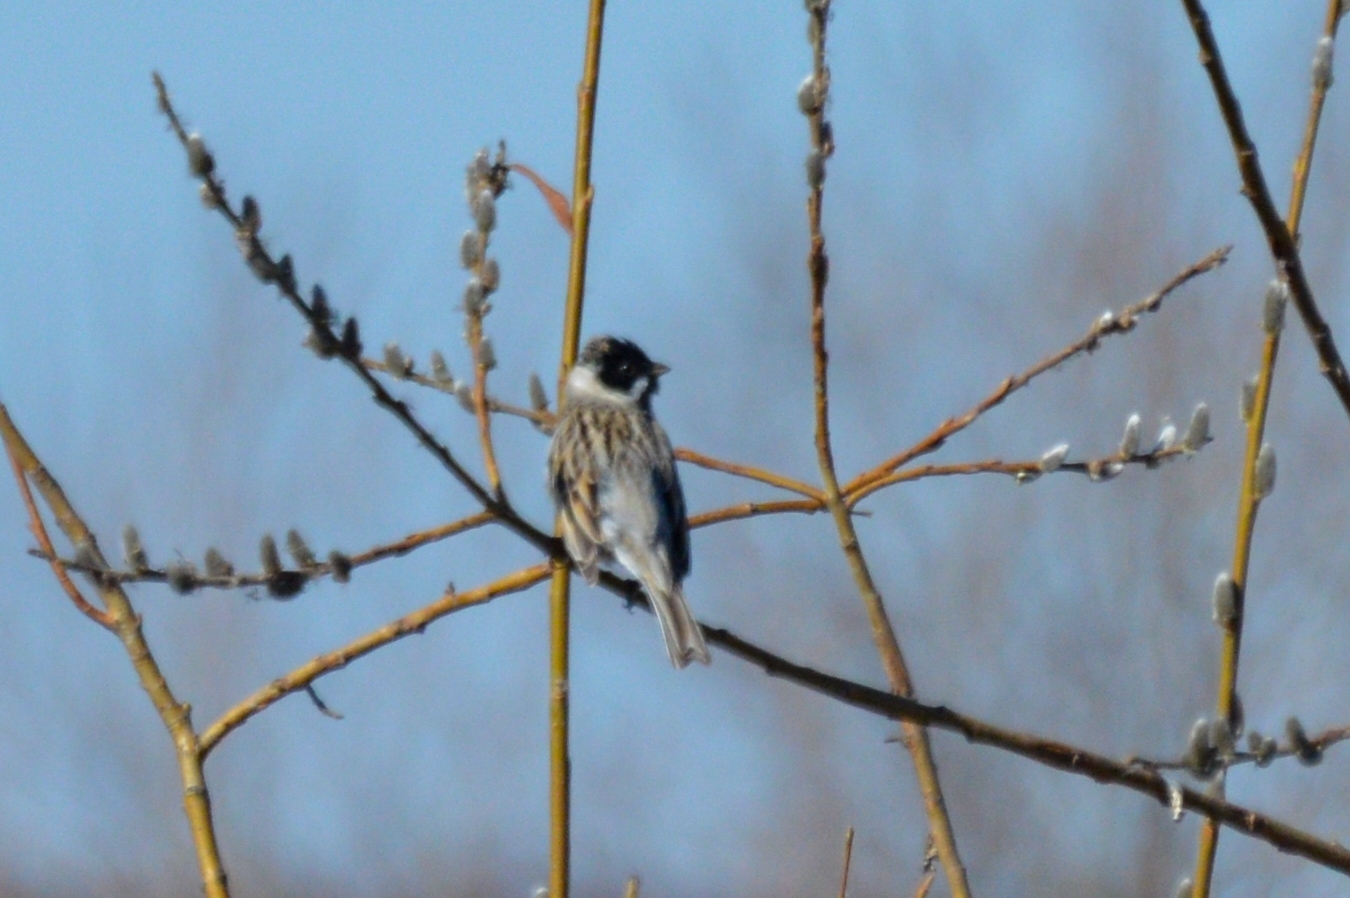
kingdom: Animalia
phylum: Chordata
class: Aves
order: Passeriformes
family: Emberizidae
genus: Emberiza
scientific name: Emberiza schoeniclus
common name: Reed bunting
